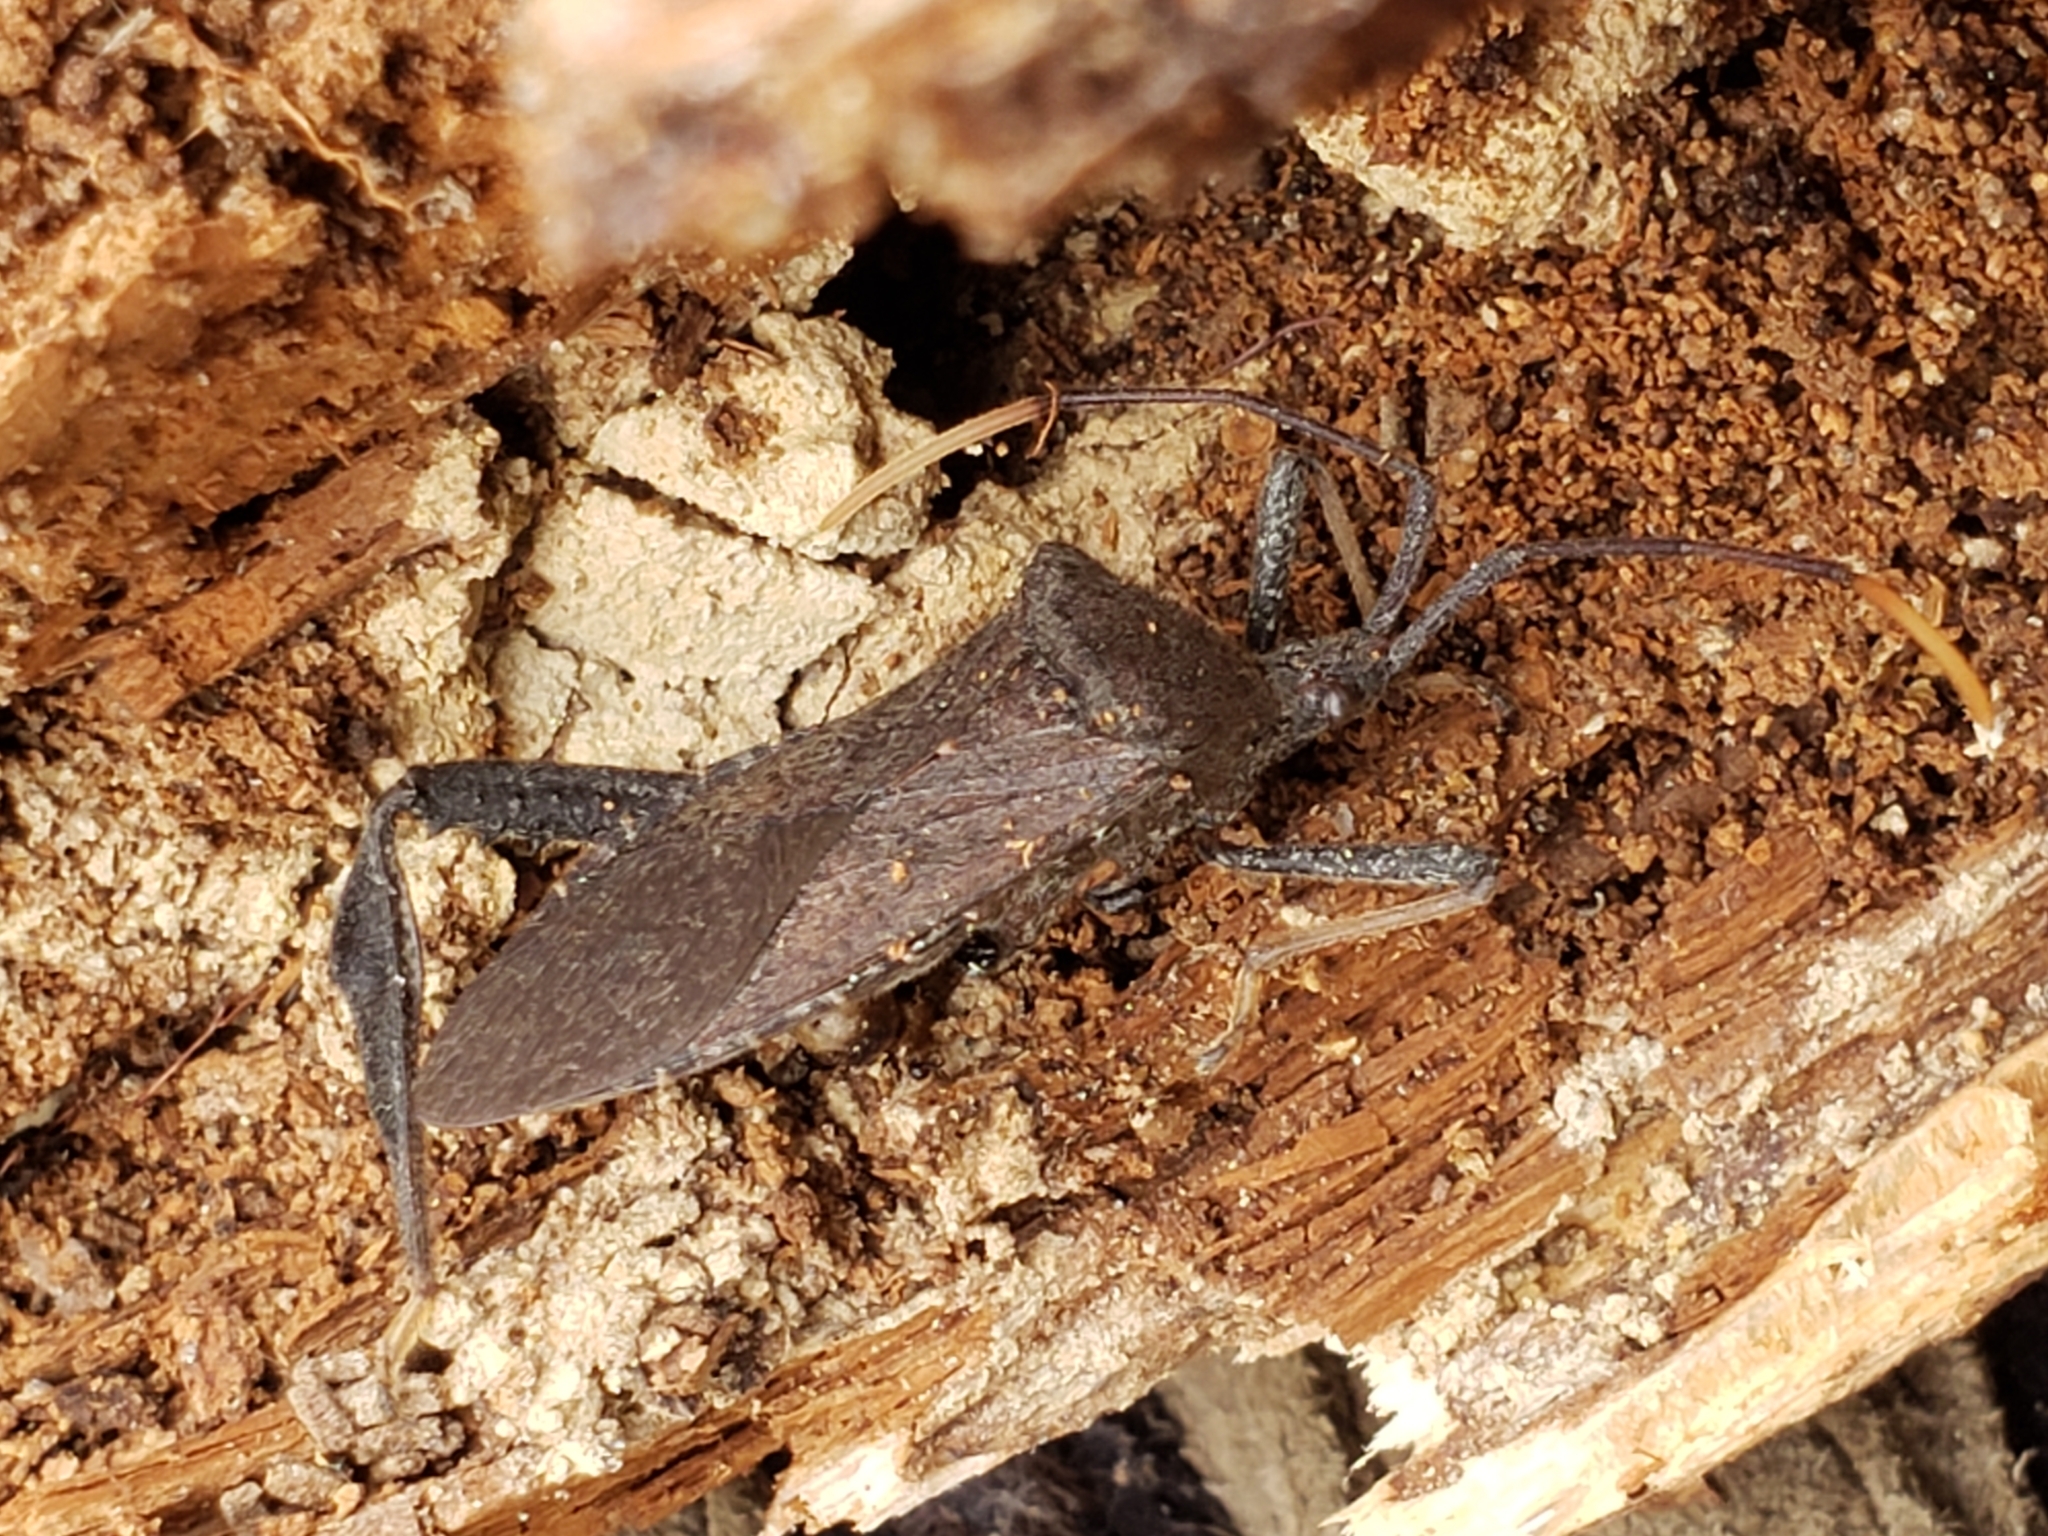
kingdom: Animalia
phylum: Arthropoda
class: Insecta
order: Hemiptera
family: Coreidae
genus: Acanthocephala
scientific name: Acanthocephala terminalis
